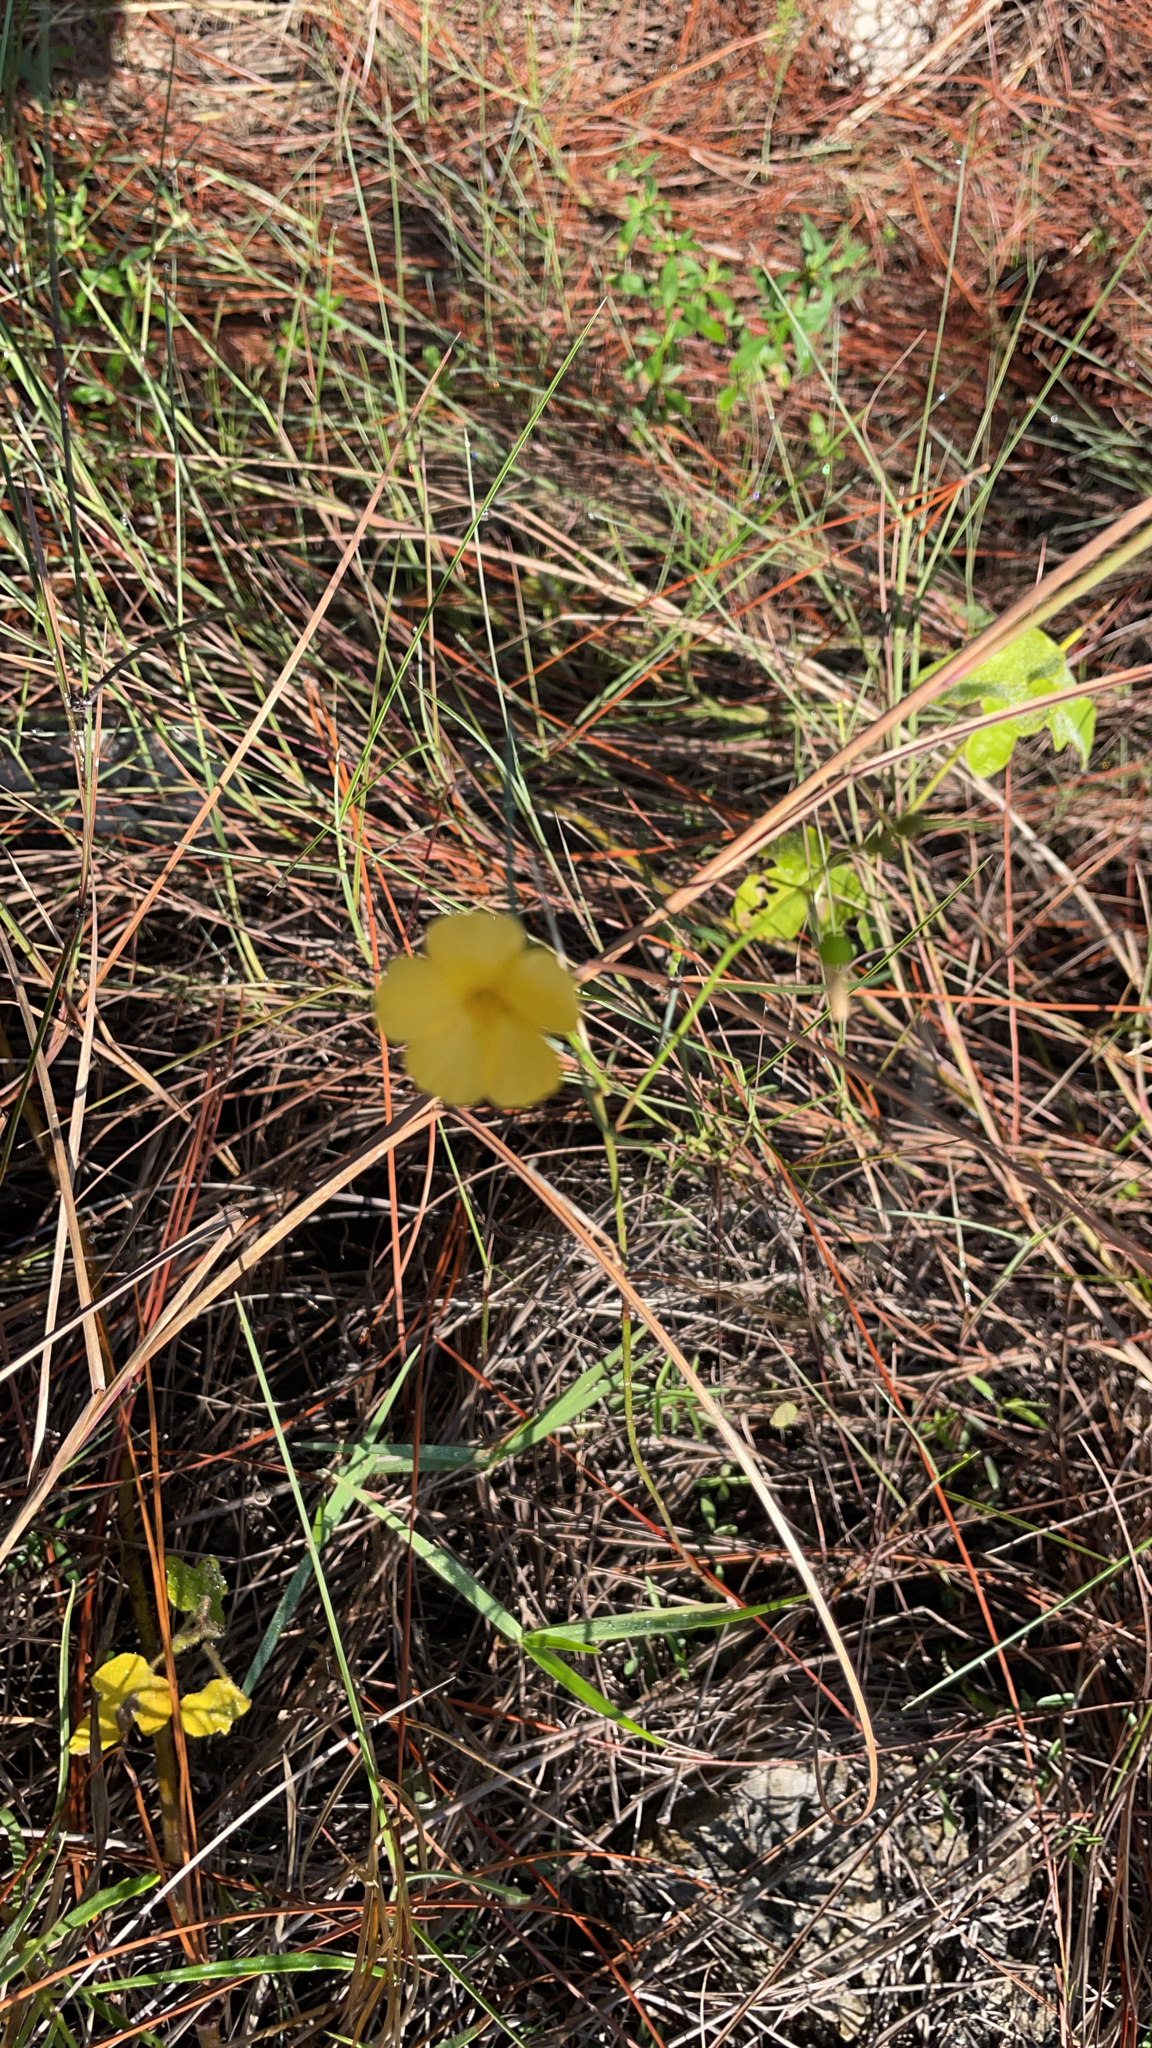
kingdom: Plantae
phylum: Tracheophyta
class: Magnoliopsida
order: Malpighiales
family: Turneraceae
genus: Piriqueta
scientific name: Piriqueta cistoides
